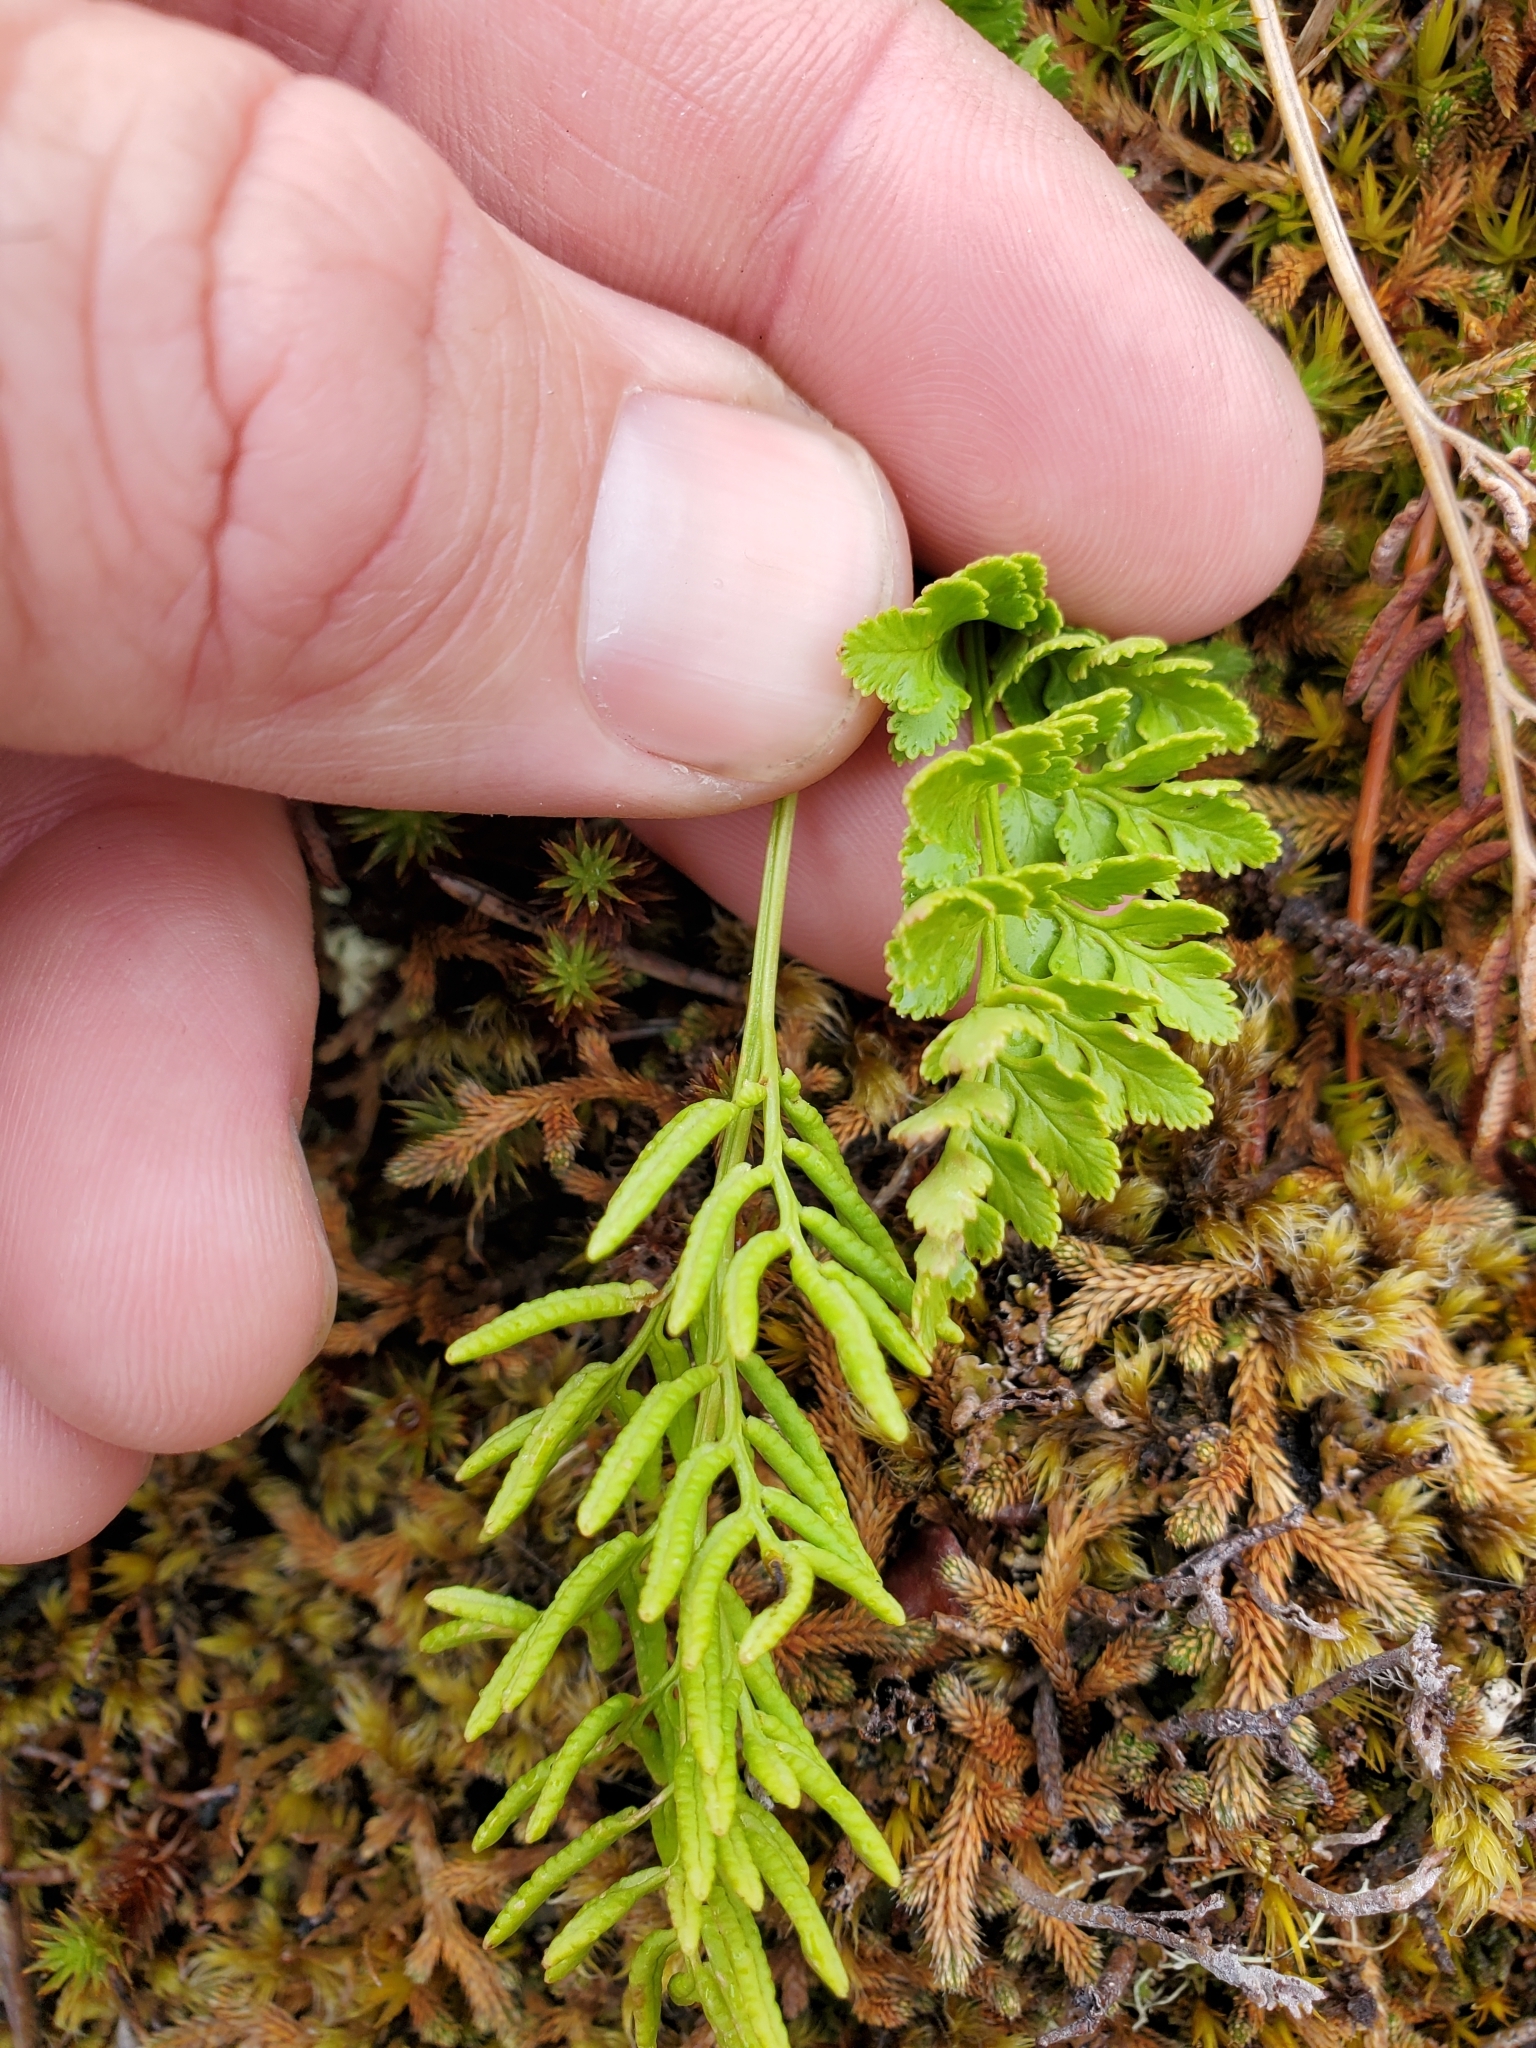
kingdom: Plantae
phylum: Tracheophyta
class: Polypodiopsida
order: Polypodiales
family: Pteridaceae
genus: Cryptogramma
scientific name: Cryptogramma acrostichoides
